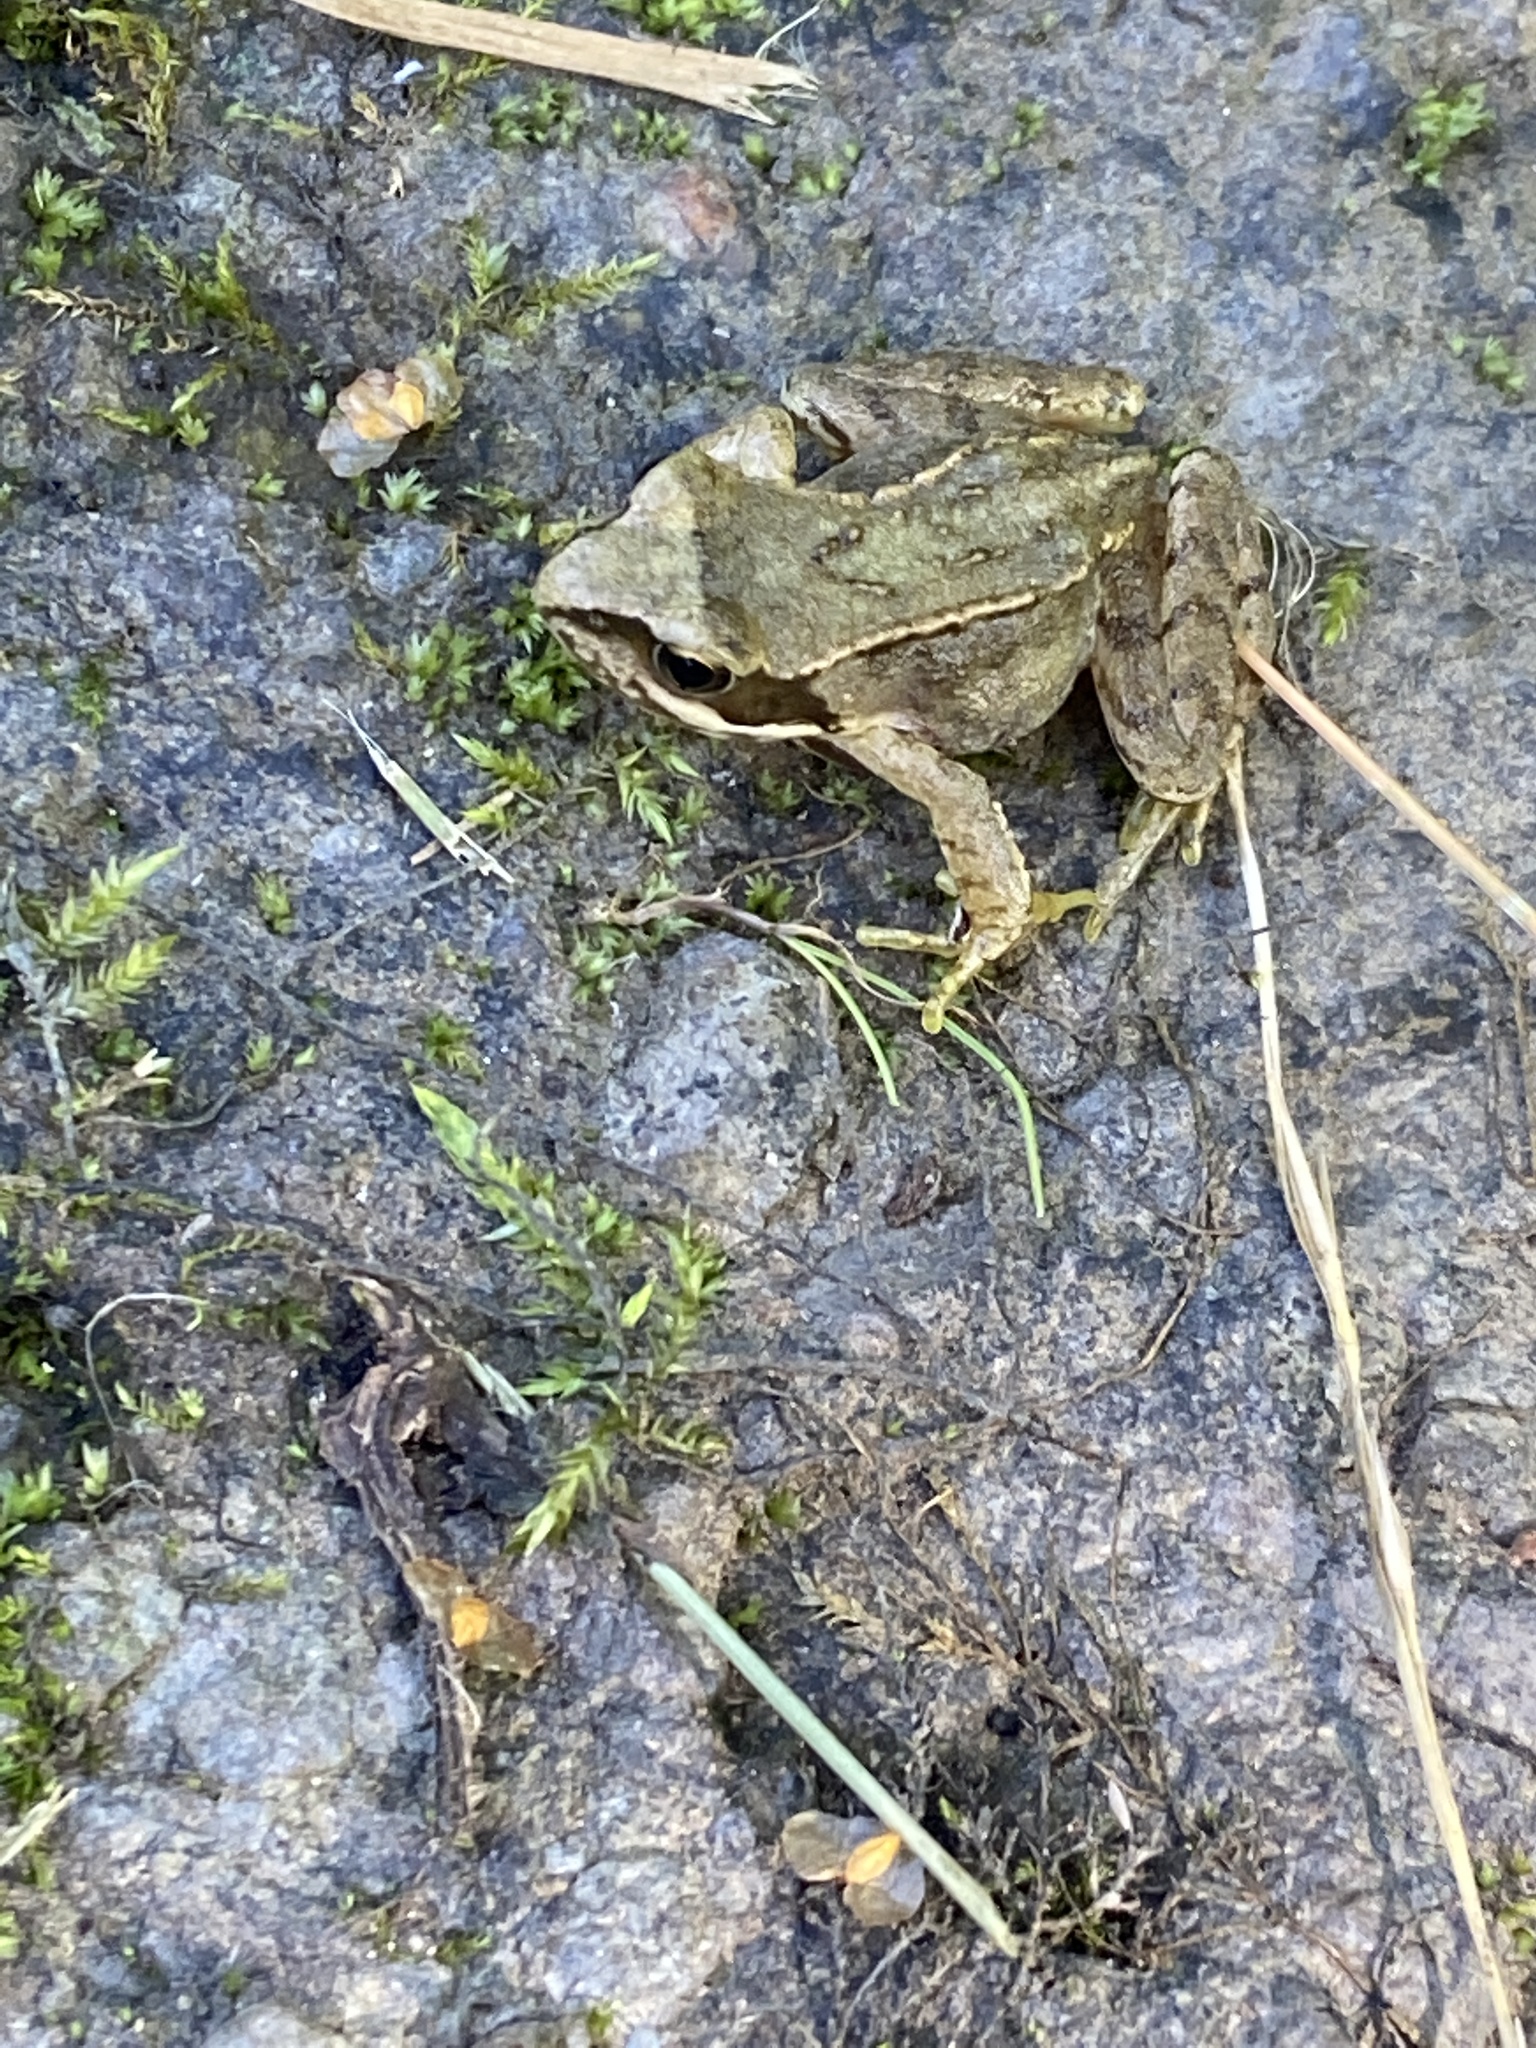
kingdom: Animalia
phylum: Chordata
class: Amphibia
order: Anura
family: Ranidae
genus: Rana
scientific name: Rana temporaria
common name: Common frog
